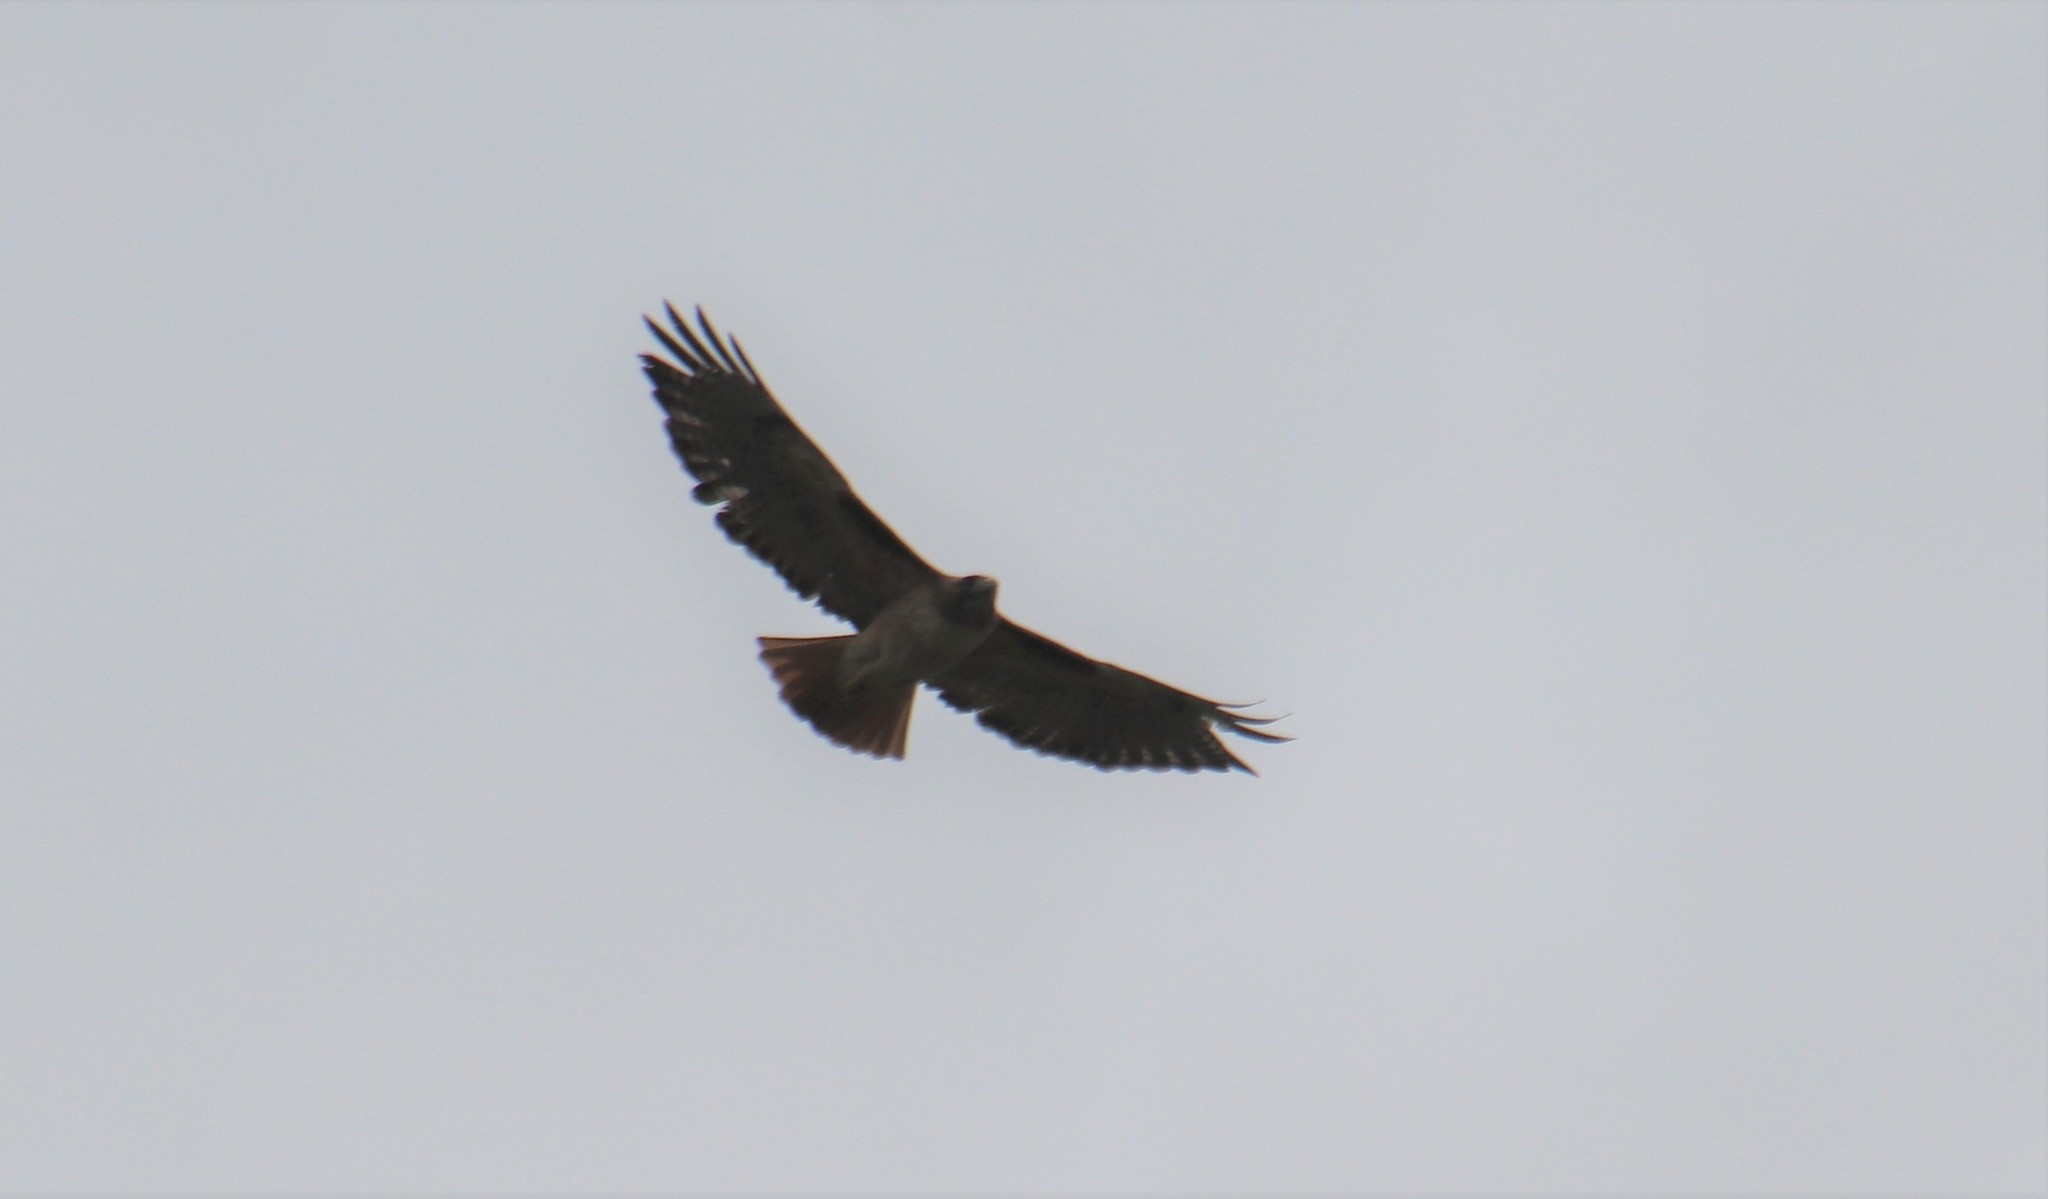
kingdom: Animalia
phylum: Chordata
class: Aves
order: Accipitriformes
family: Accipitridae
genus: Buteo
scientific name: Buteo jamaicensis
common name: Red-tailed hawk
